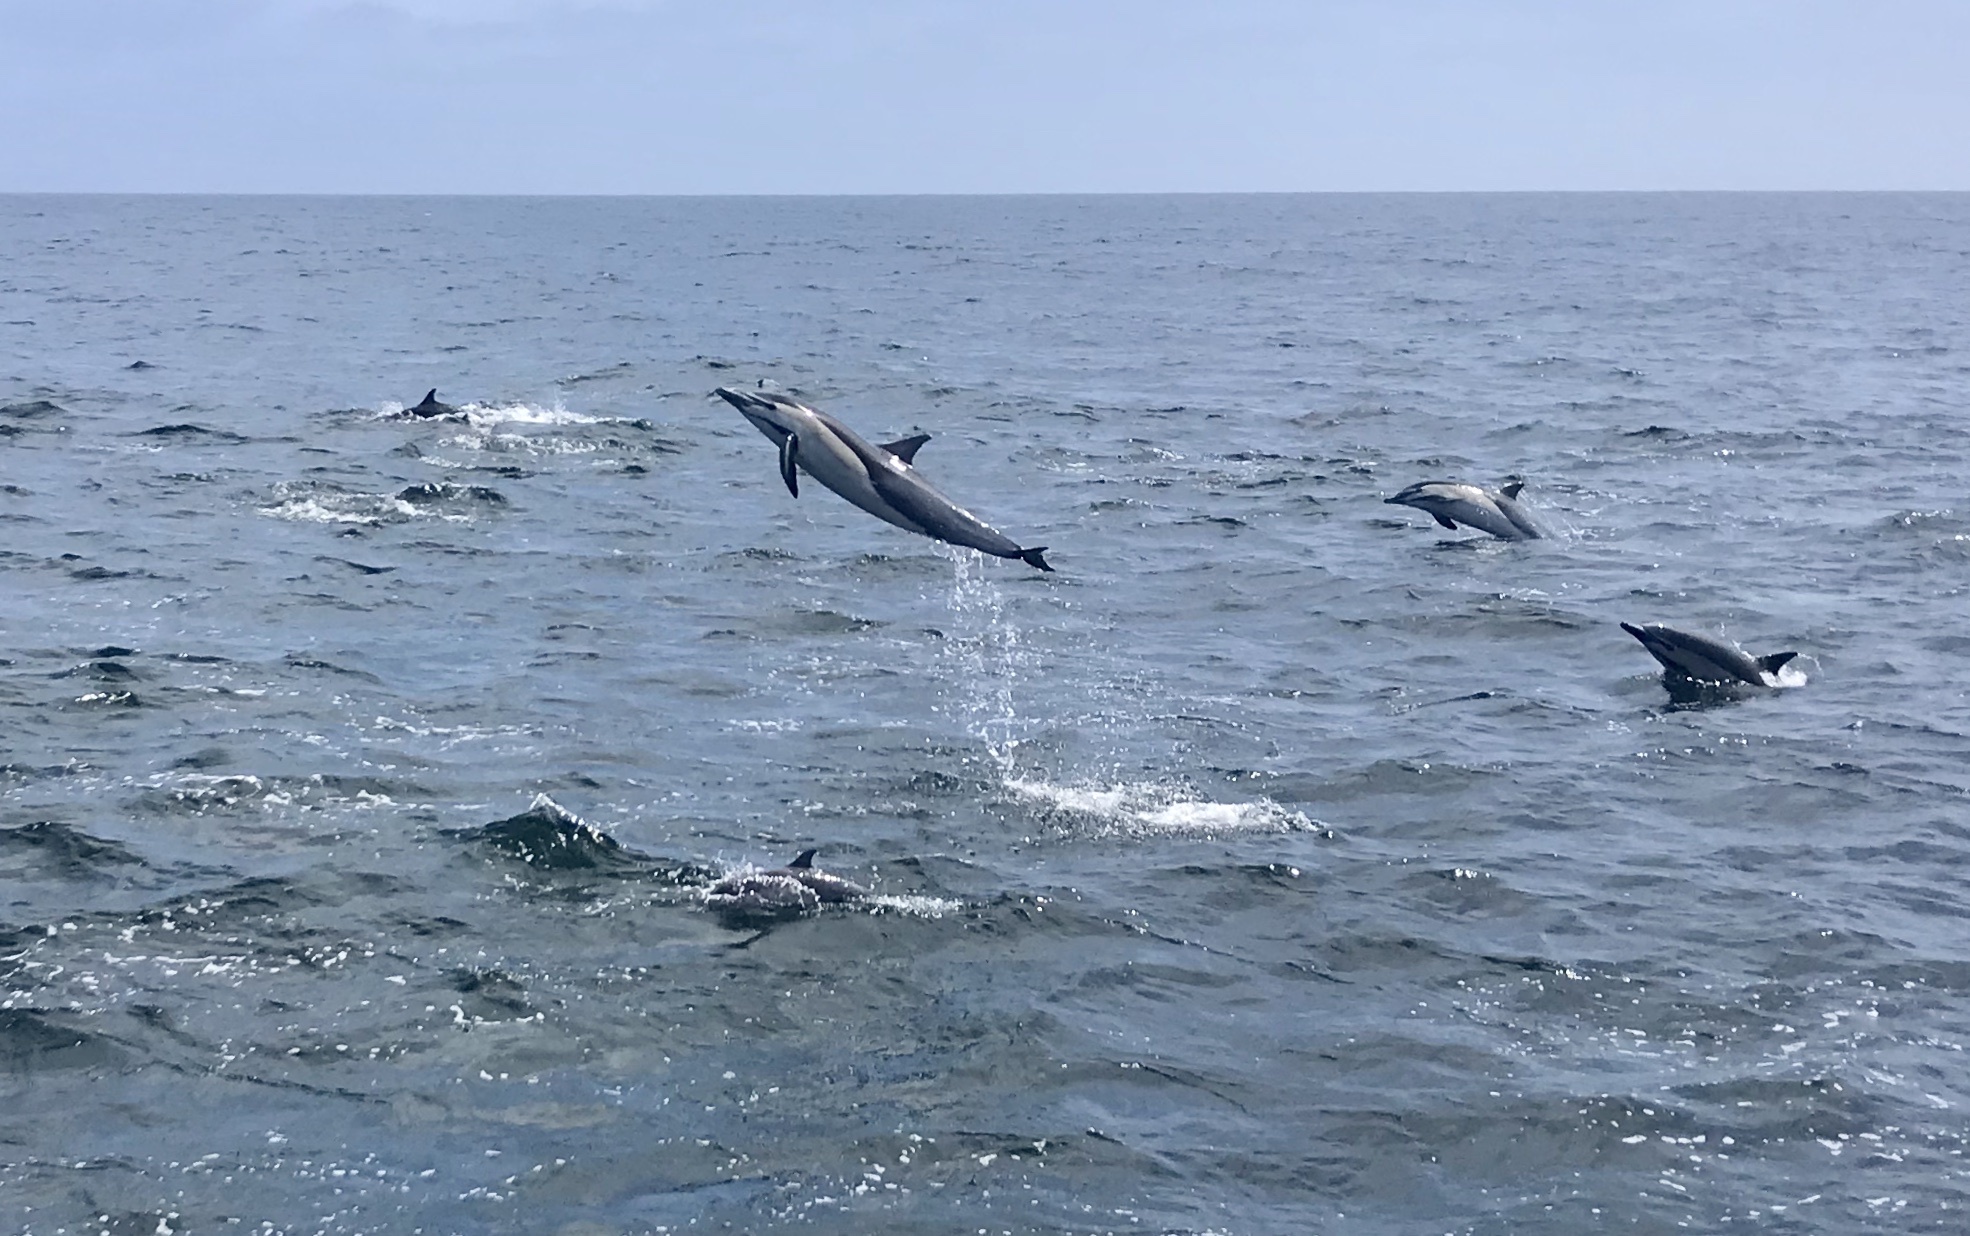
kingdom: Animalia
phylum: Chordata
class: Mammalia
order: Cetacea
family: Delphinidae
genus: Delphinus
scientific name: Delphinus delphis
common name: Common dolphin
